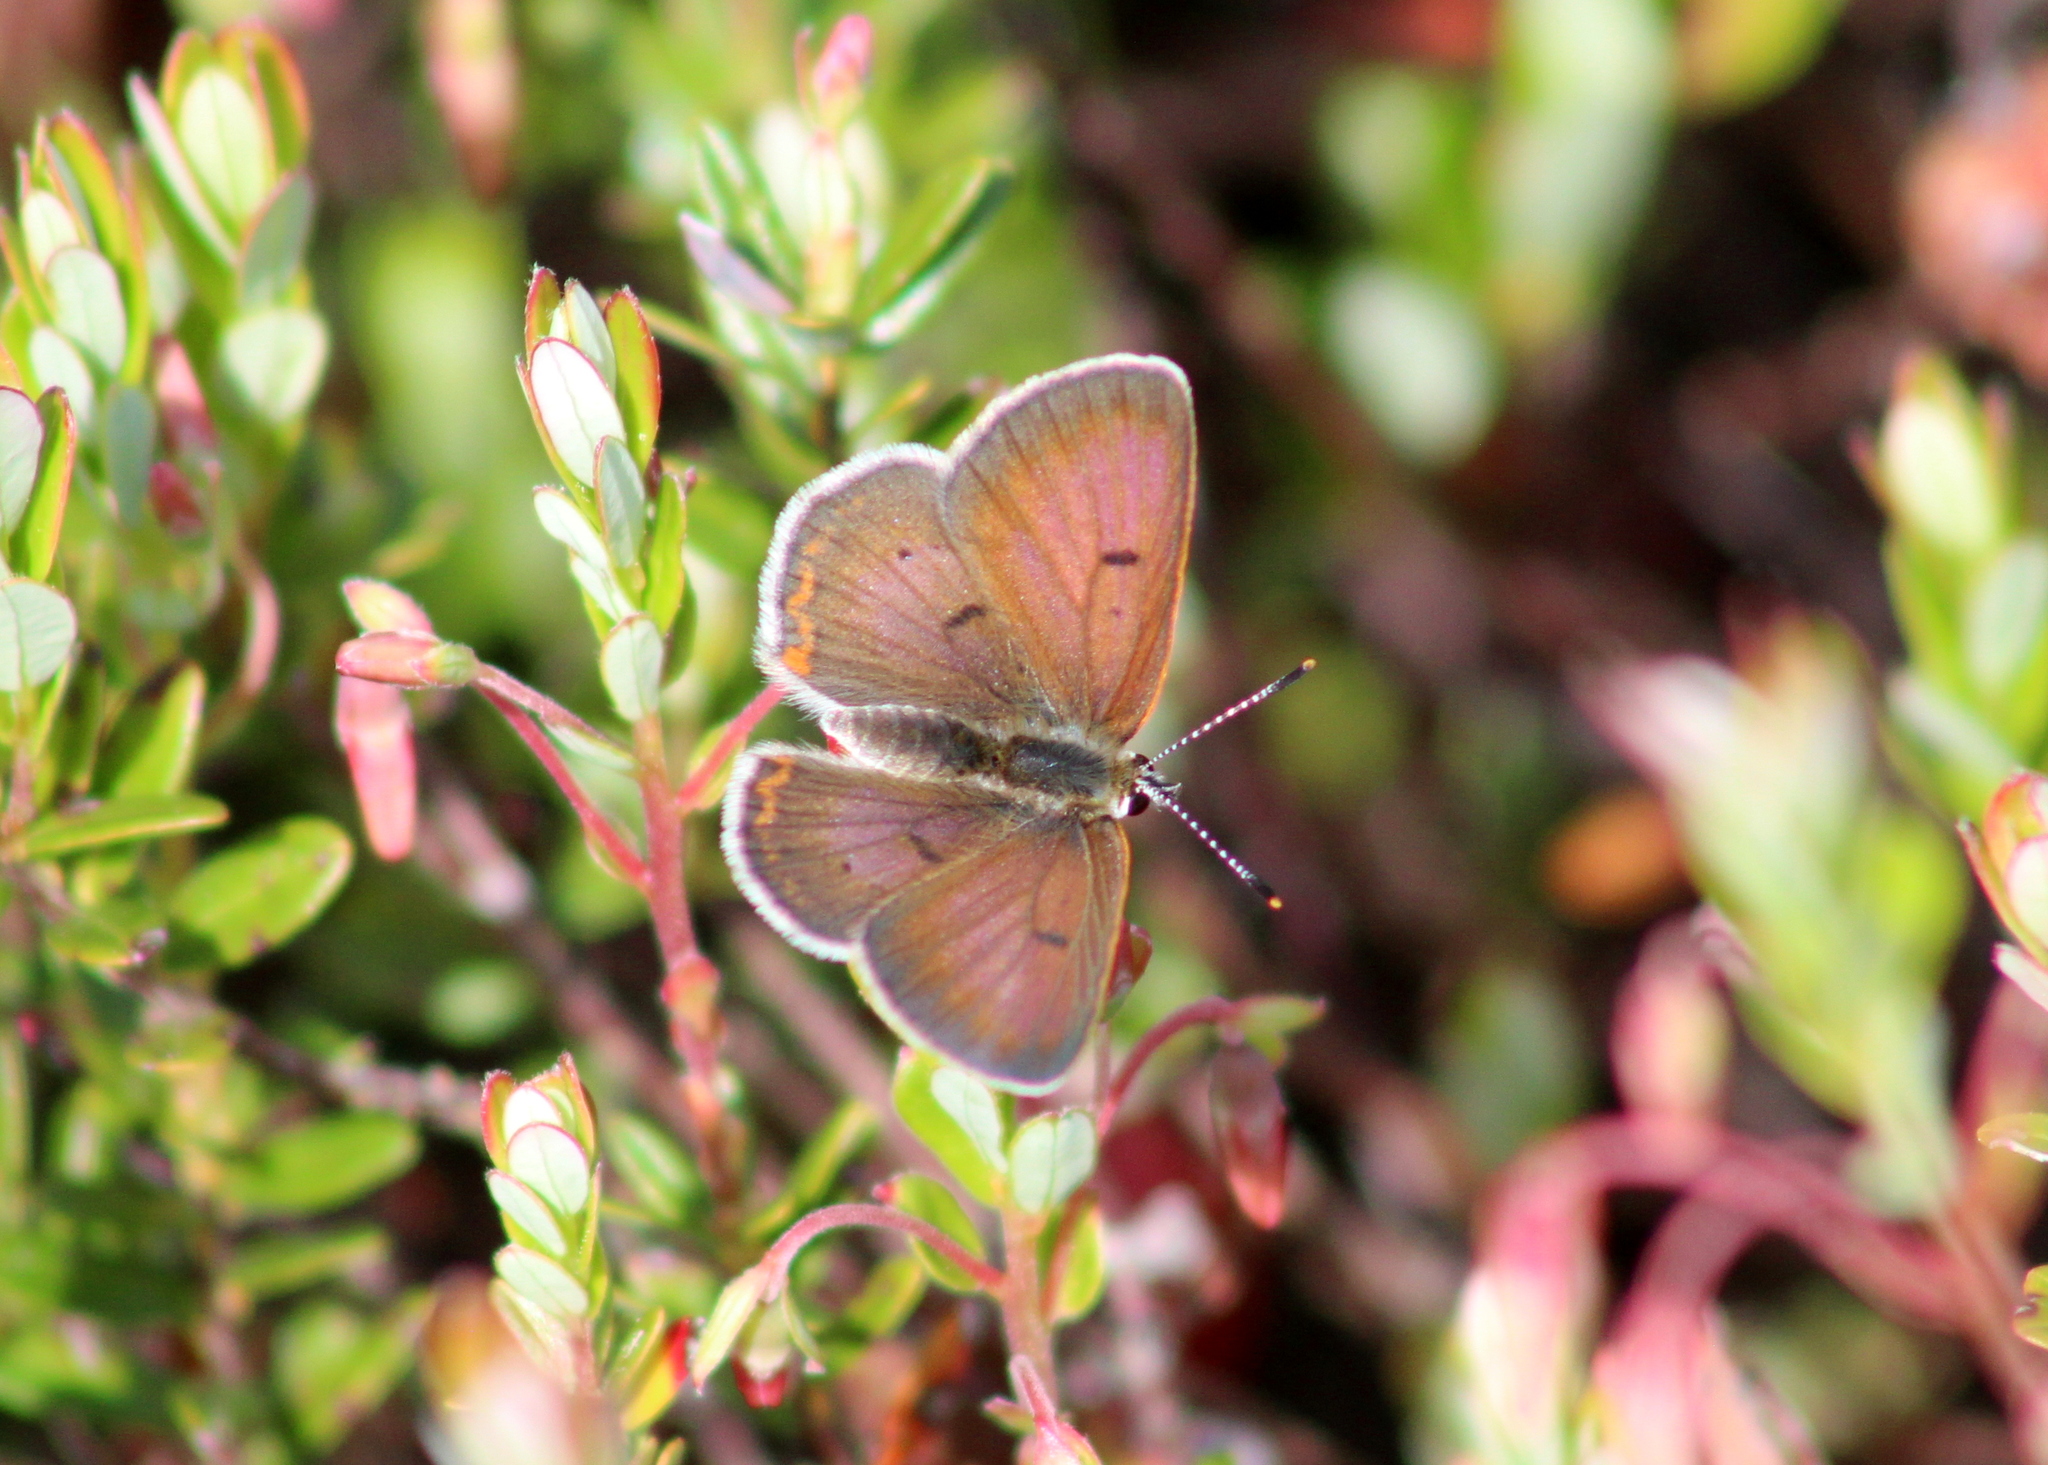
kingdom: Animalia
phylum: Arthropoda
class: Insecta
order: Lepidoptera
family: Lycaenidae
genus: Tharsalea
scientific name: Tharsalea epixanthe
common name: Bog copper
